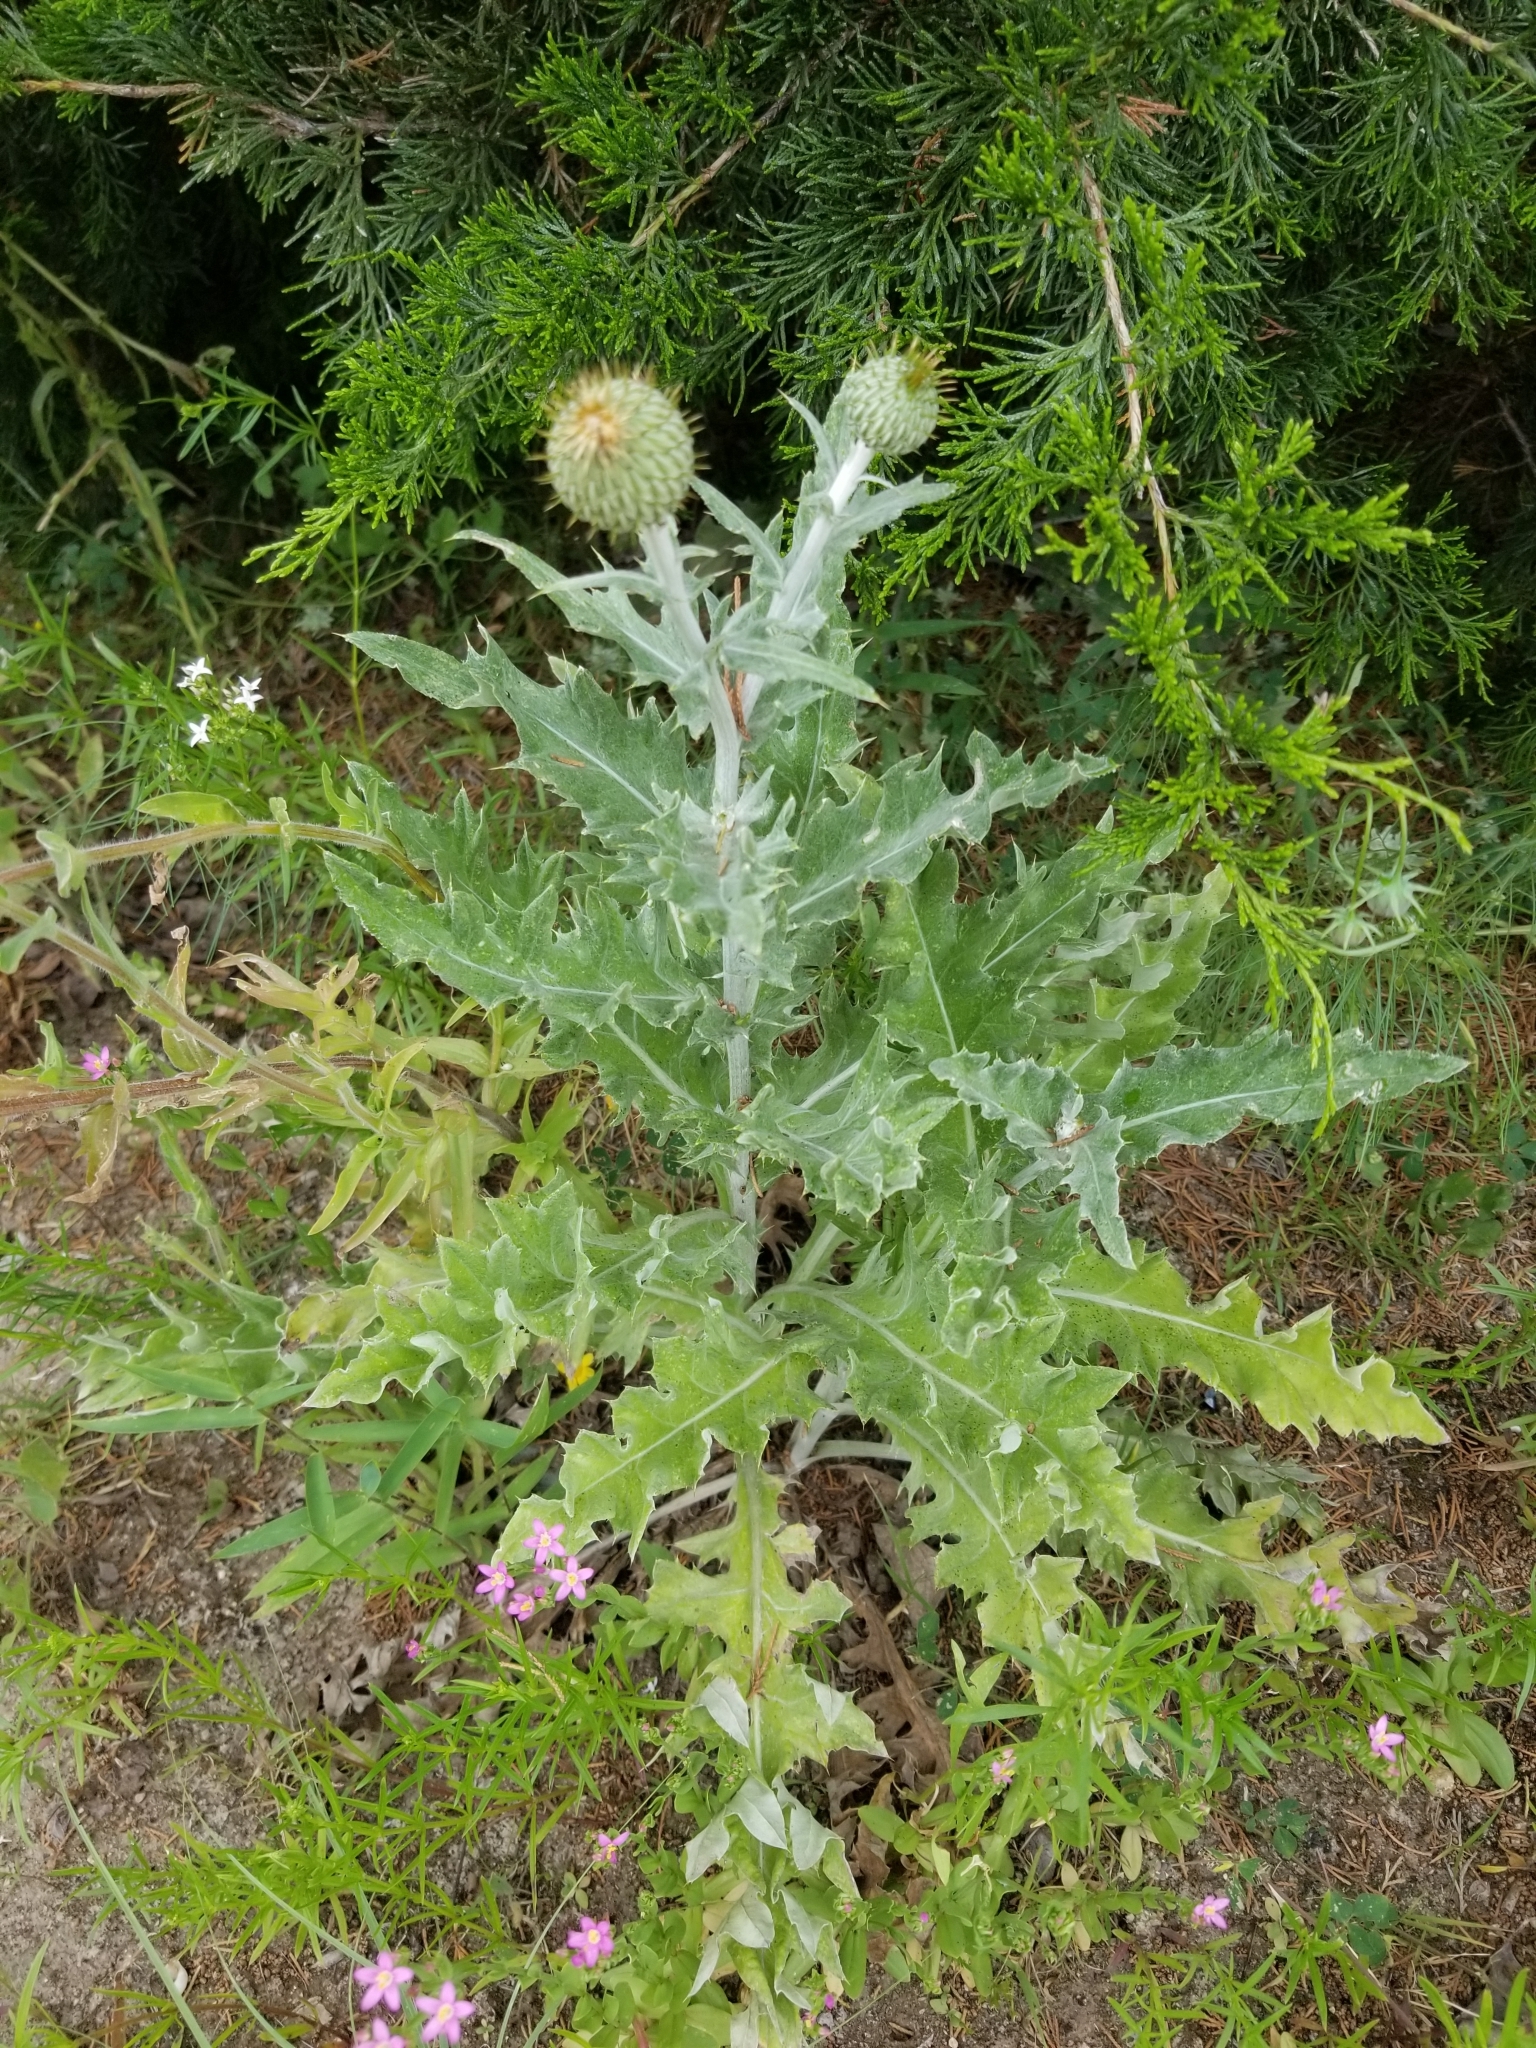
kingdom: Plantae
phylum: Tracheophyta
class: Magnoliopsida
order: Asterales
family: Asteraceae
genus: Cirsium
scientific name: Cirsium undulatum
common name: Pasture thistle
